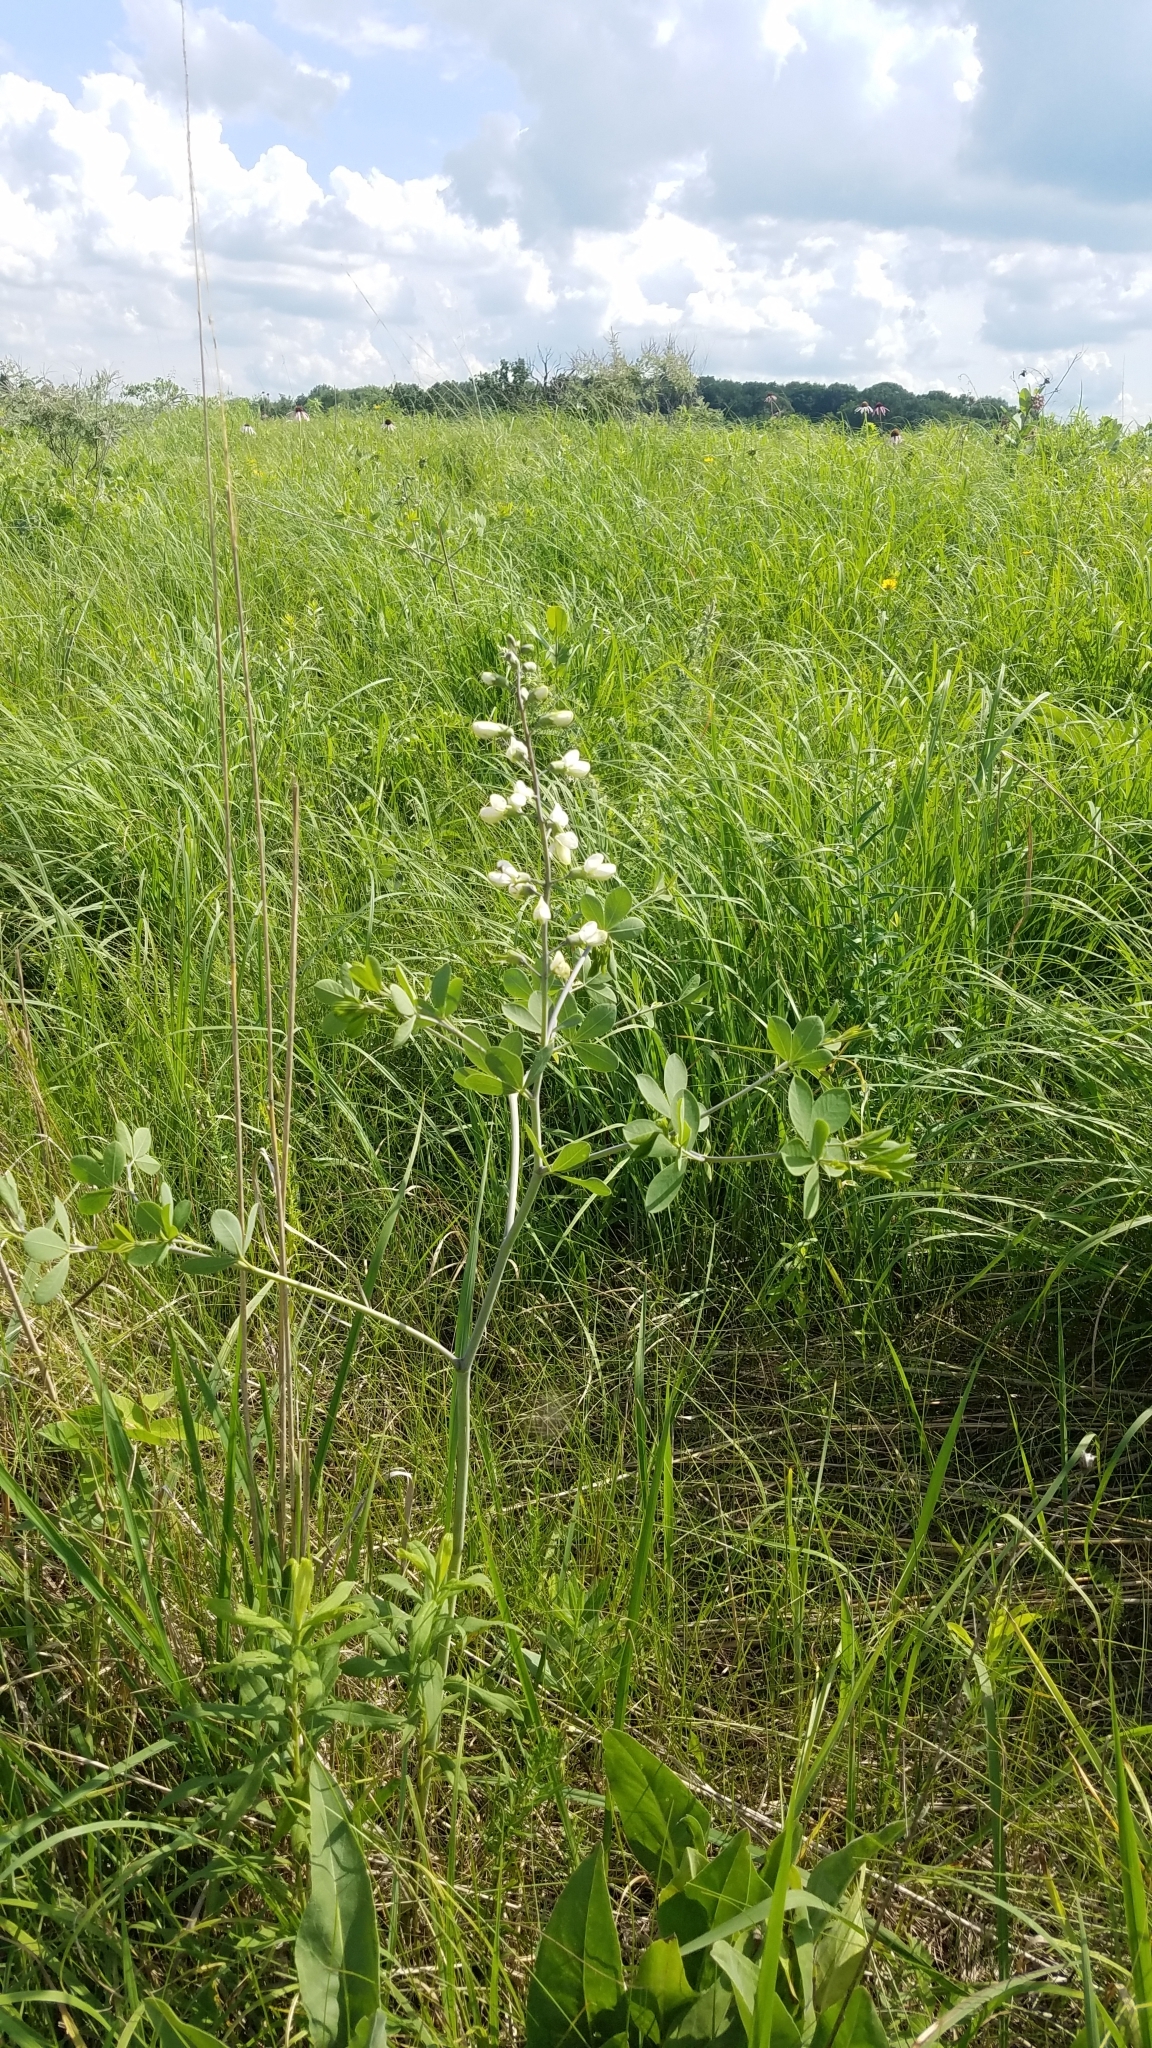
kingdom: Plantae
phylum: Tracheophyta
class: Magnoliopsida
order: Fabales
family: Fabaceae
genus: Baptisia
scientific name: Baptisia alba
